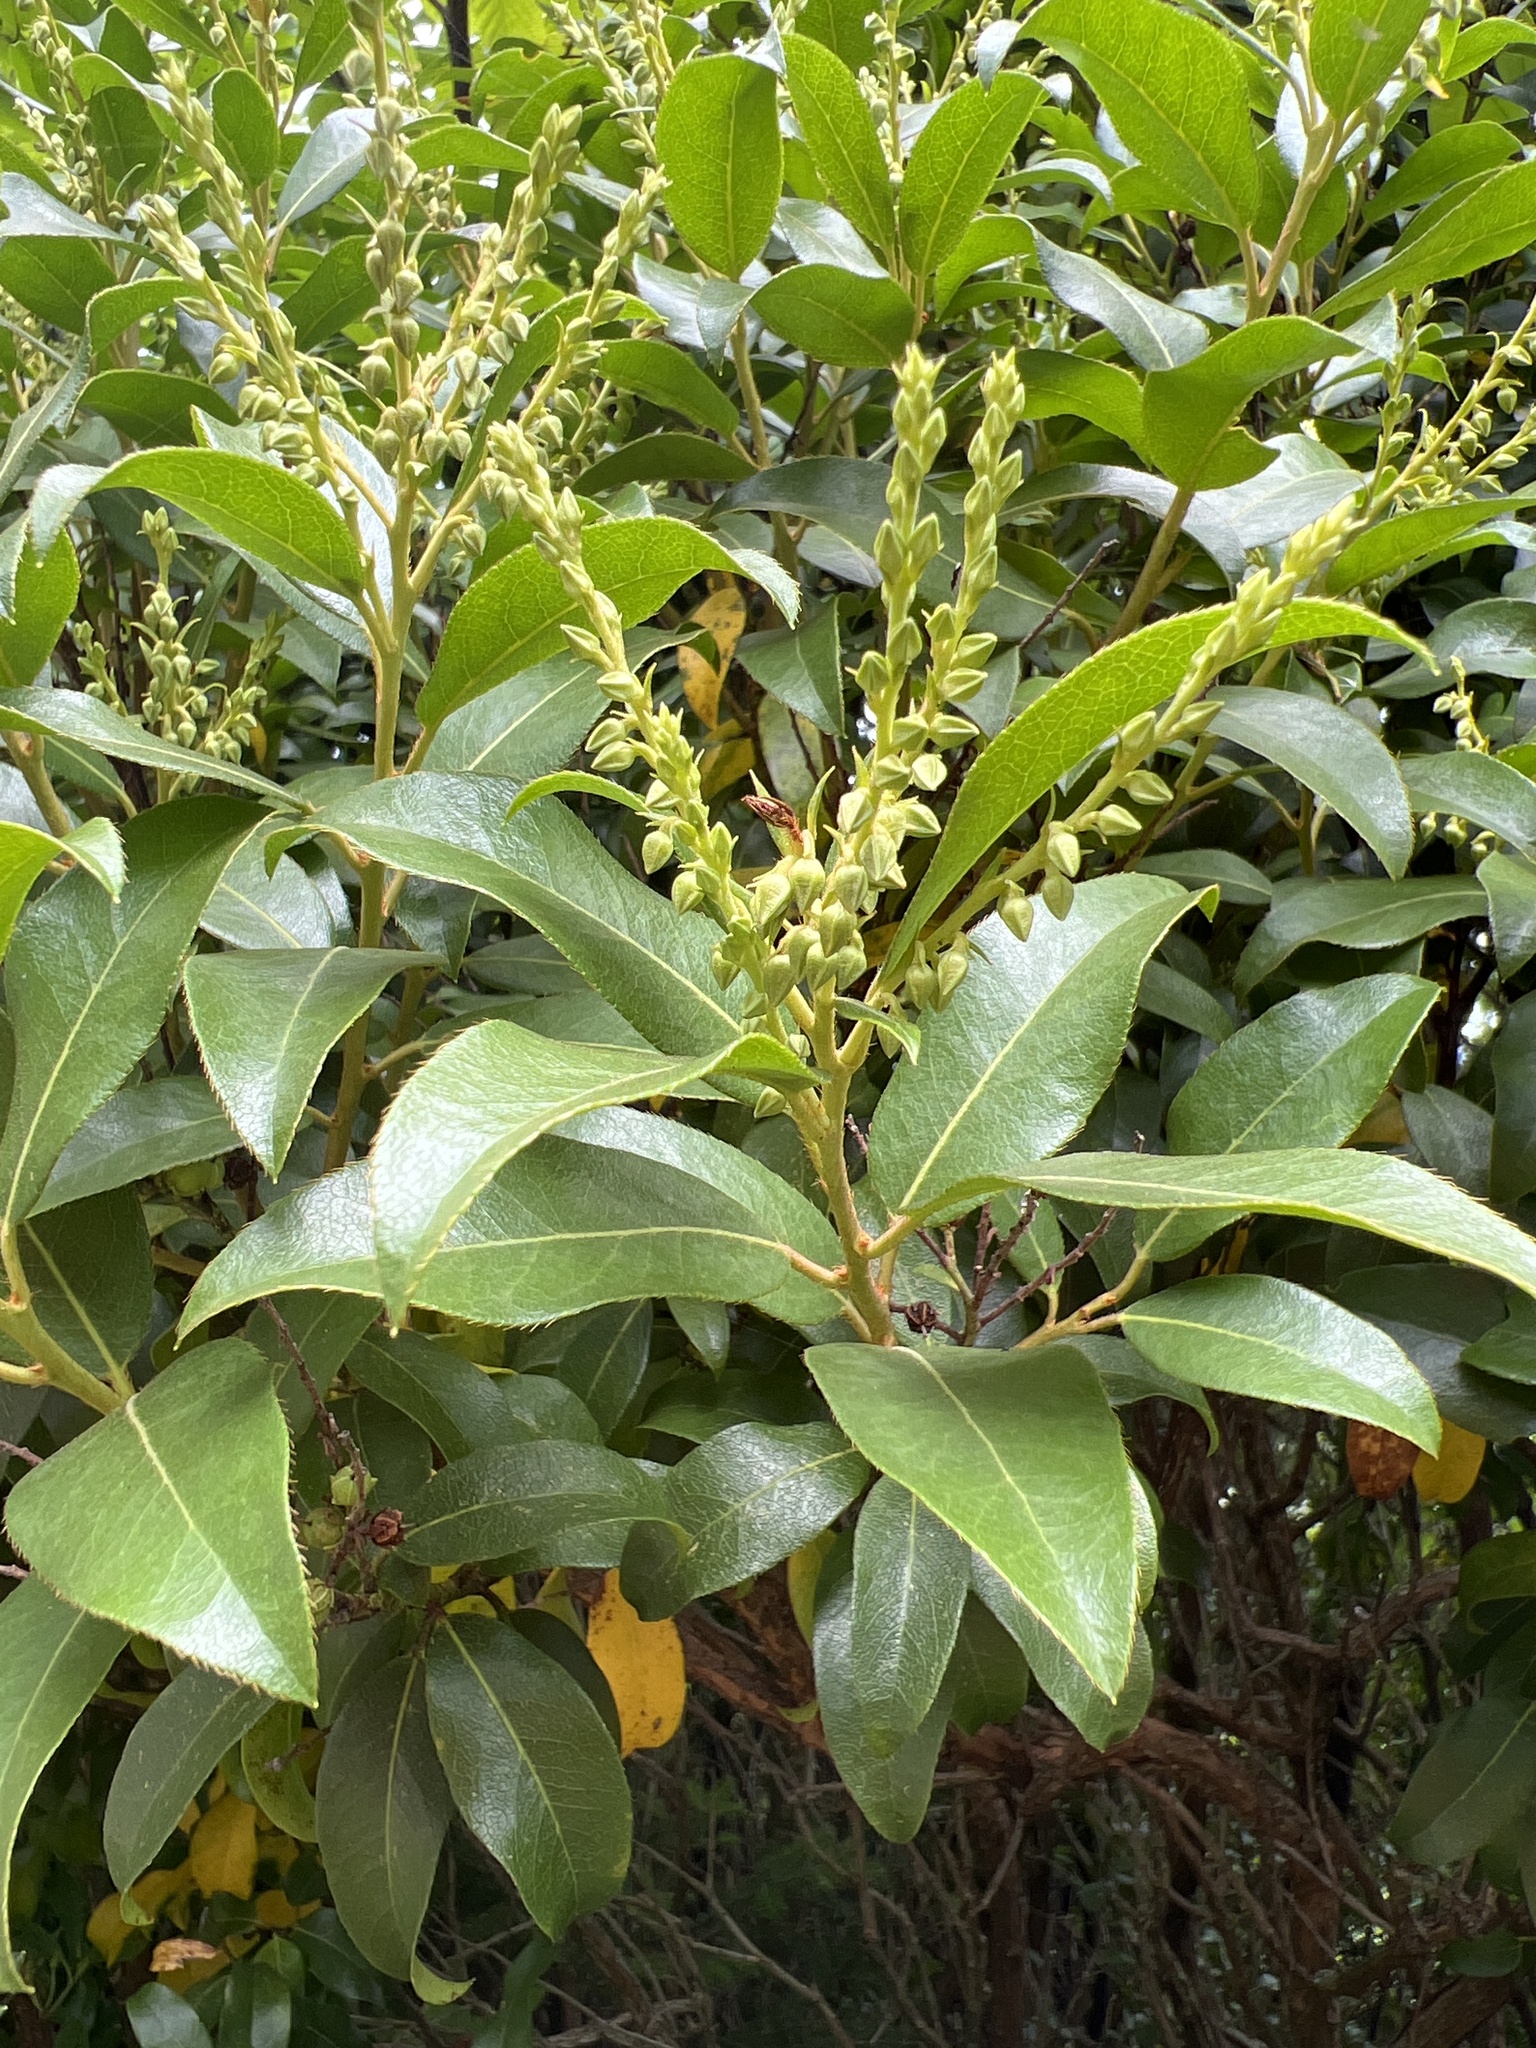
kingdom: Plantae
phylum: Tracheophyta
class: Magnoliopsida
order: Ericales
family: Ericaceae
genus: Pieris
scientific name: Pieris floribunda
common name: Flutterbush
